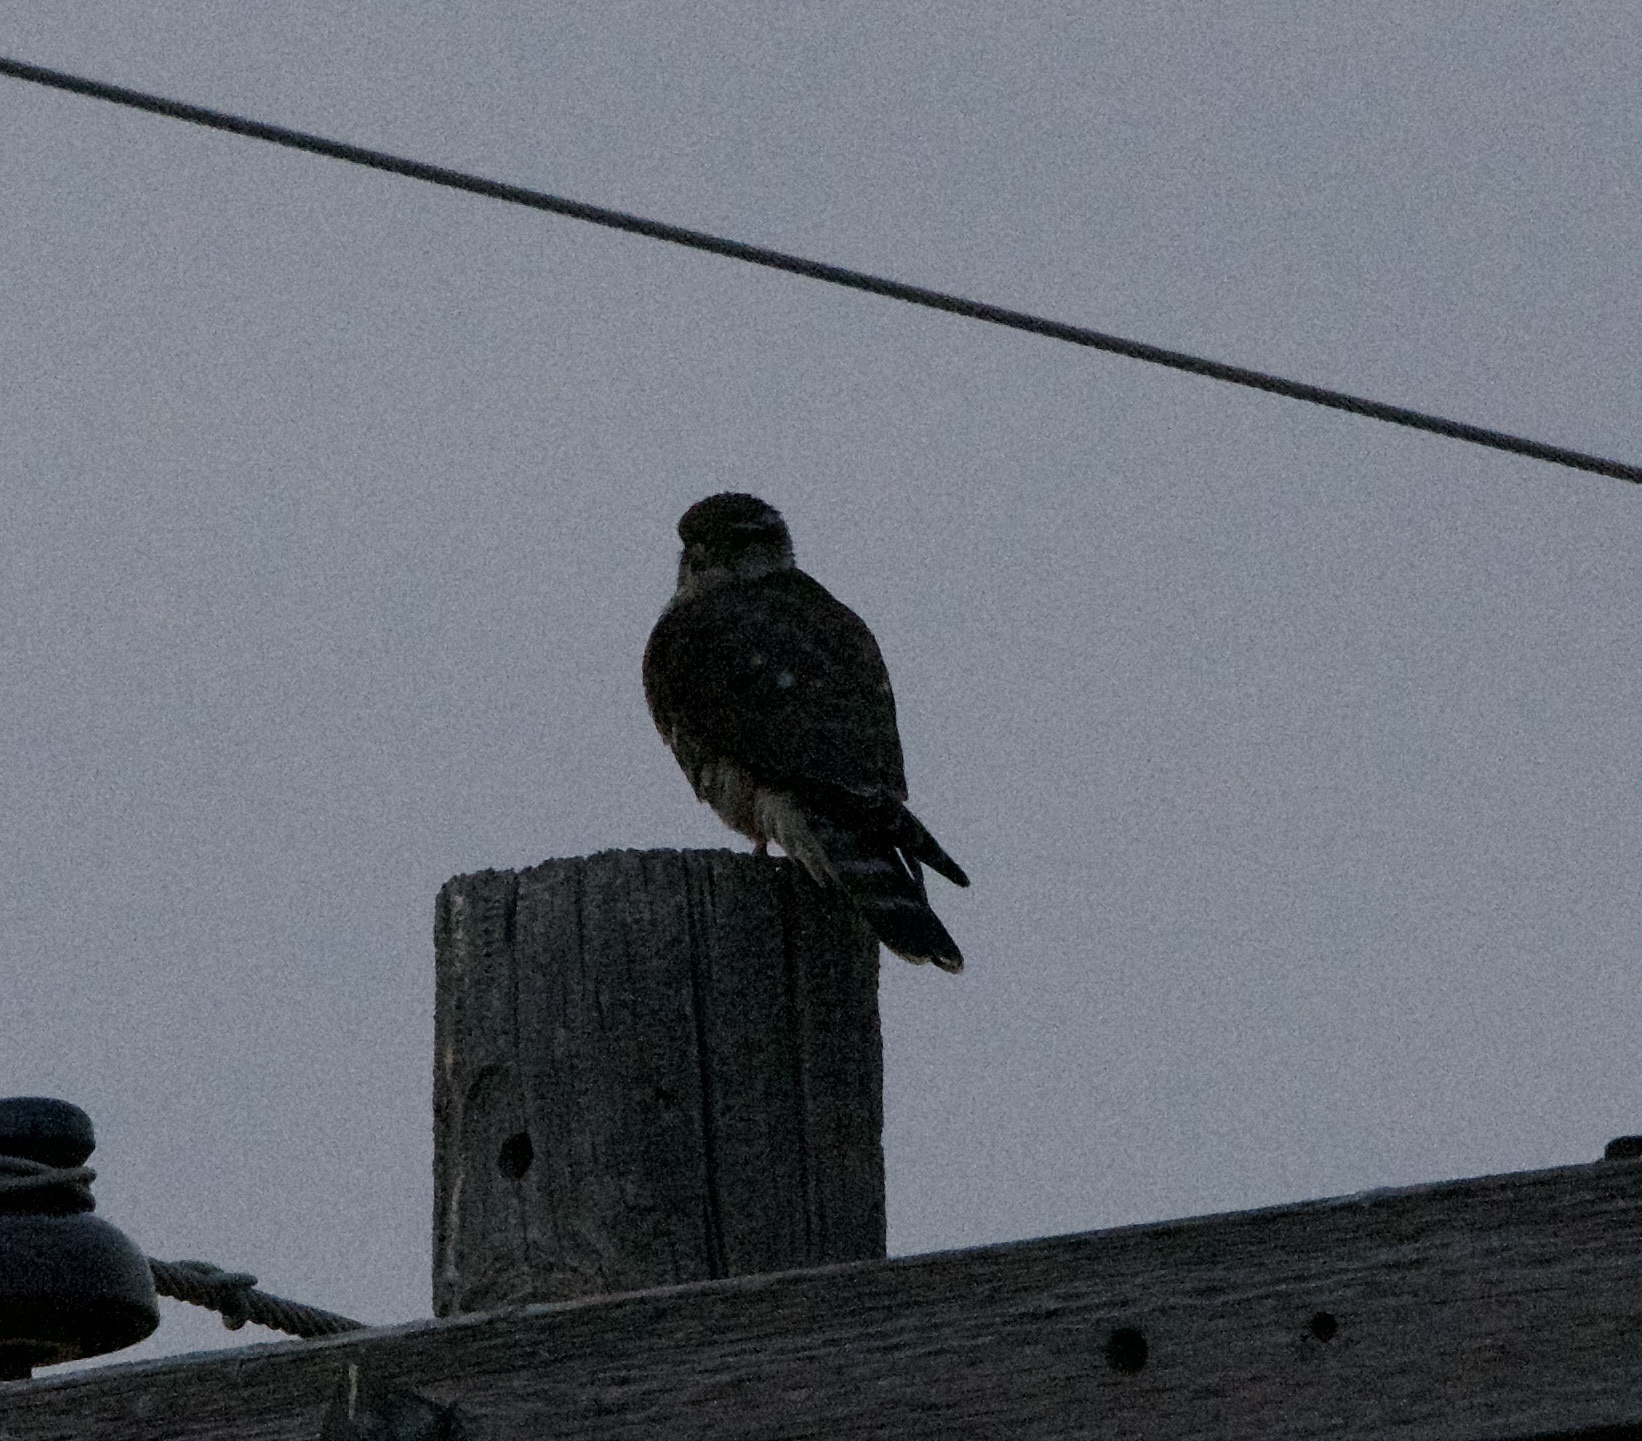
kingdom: Animalia
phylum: Chordata
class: Aves
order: Falconiformes
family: Falconidae
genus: Falco
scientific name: Falco columbarius
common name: Merlin
